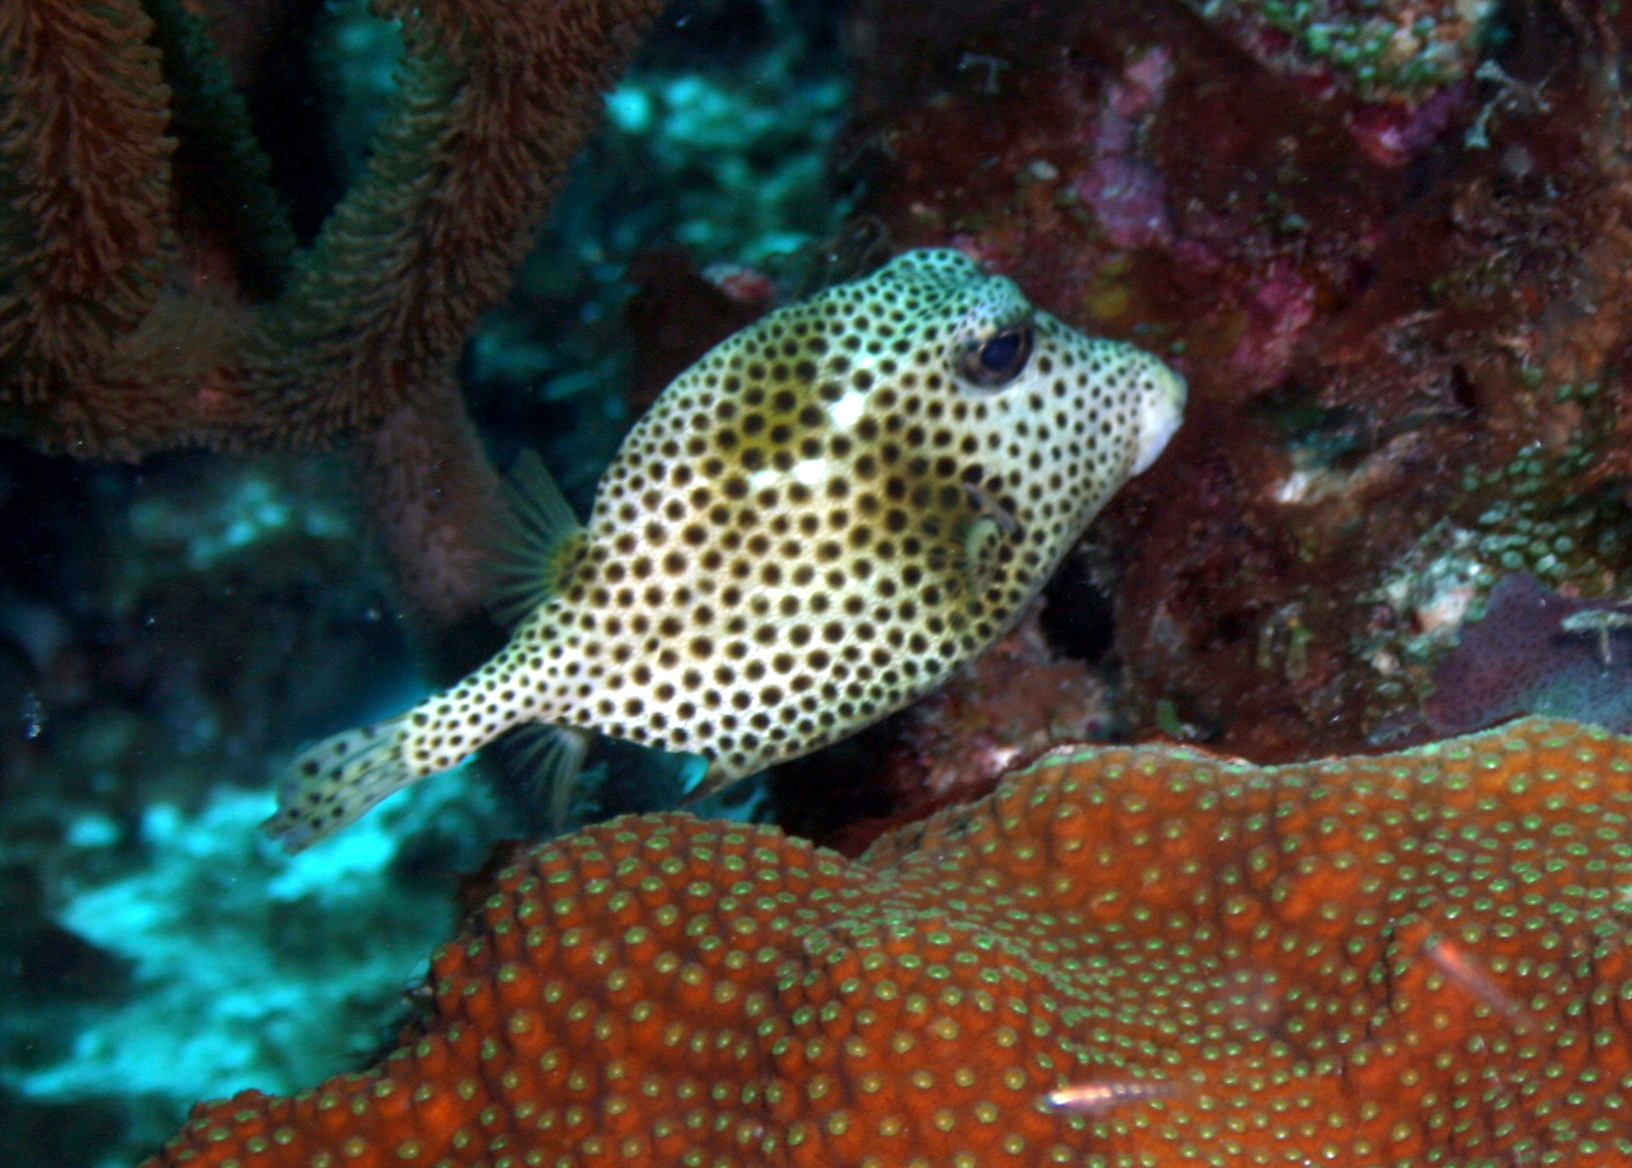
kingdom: Animalia
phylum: Chordata
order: Tetraodontiformes
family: Ostraciidae
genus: Lactophrys
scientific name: Lactophrys bicaudalis
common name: Spotted trunkfish
